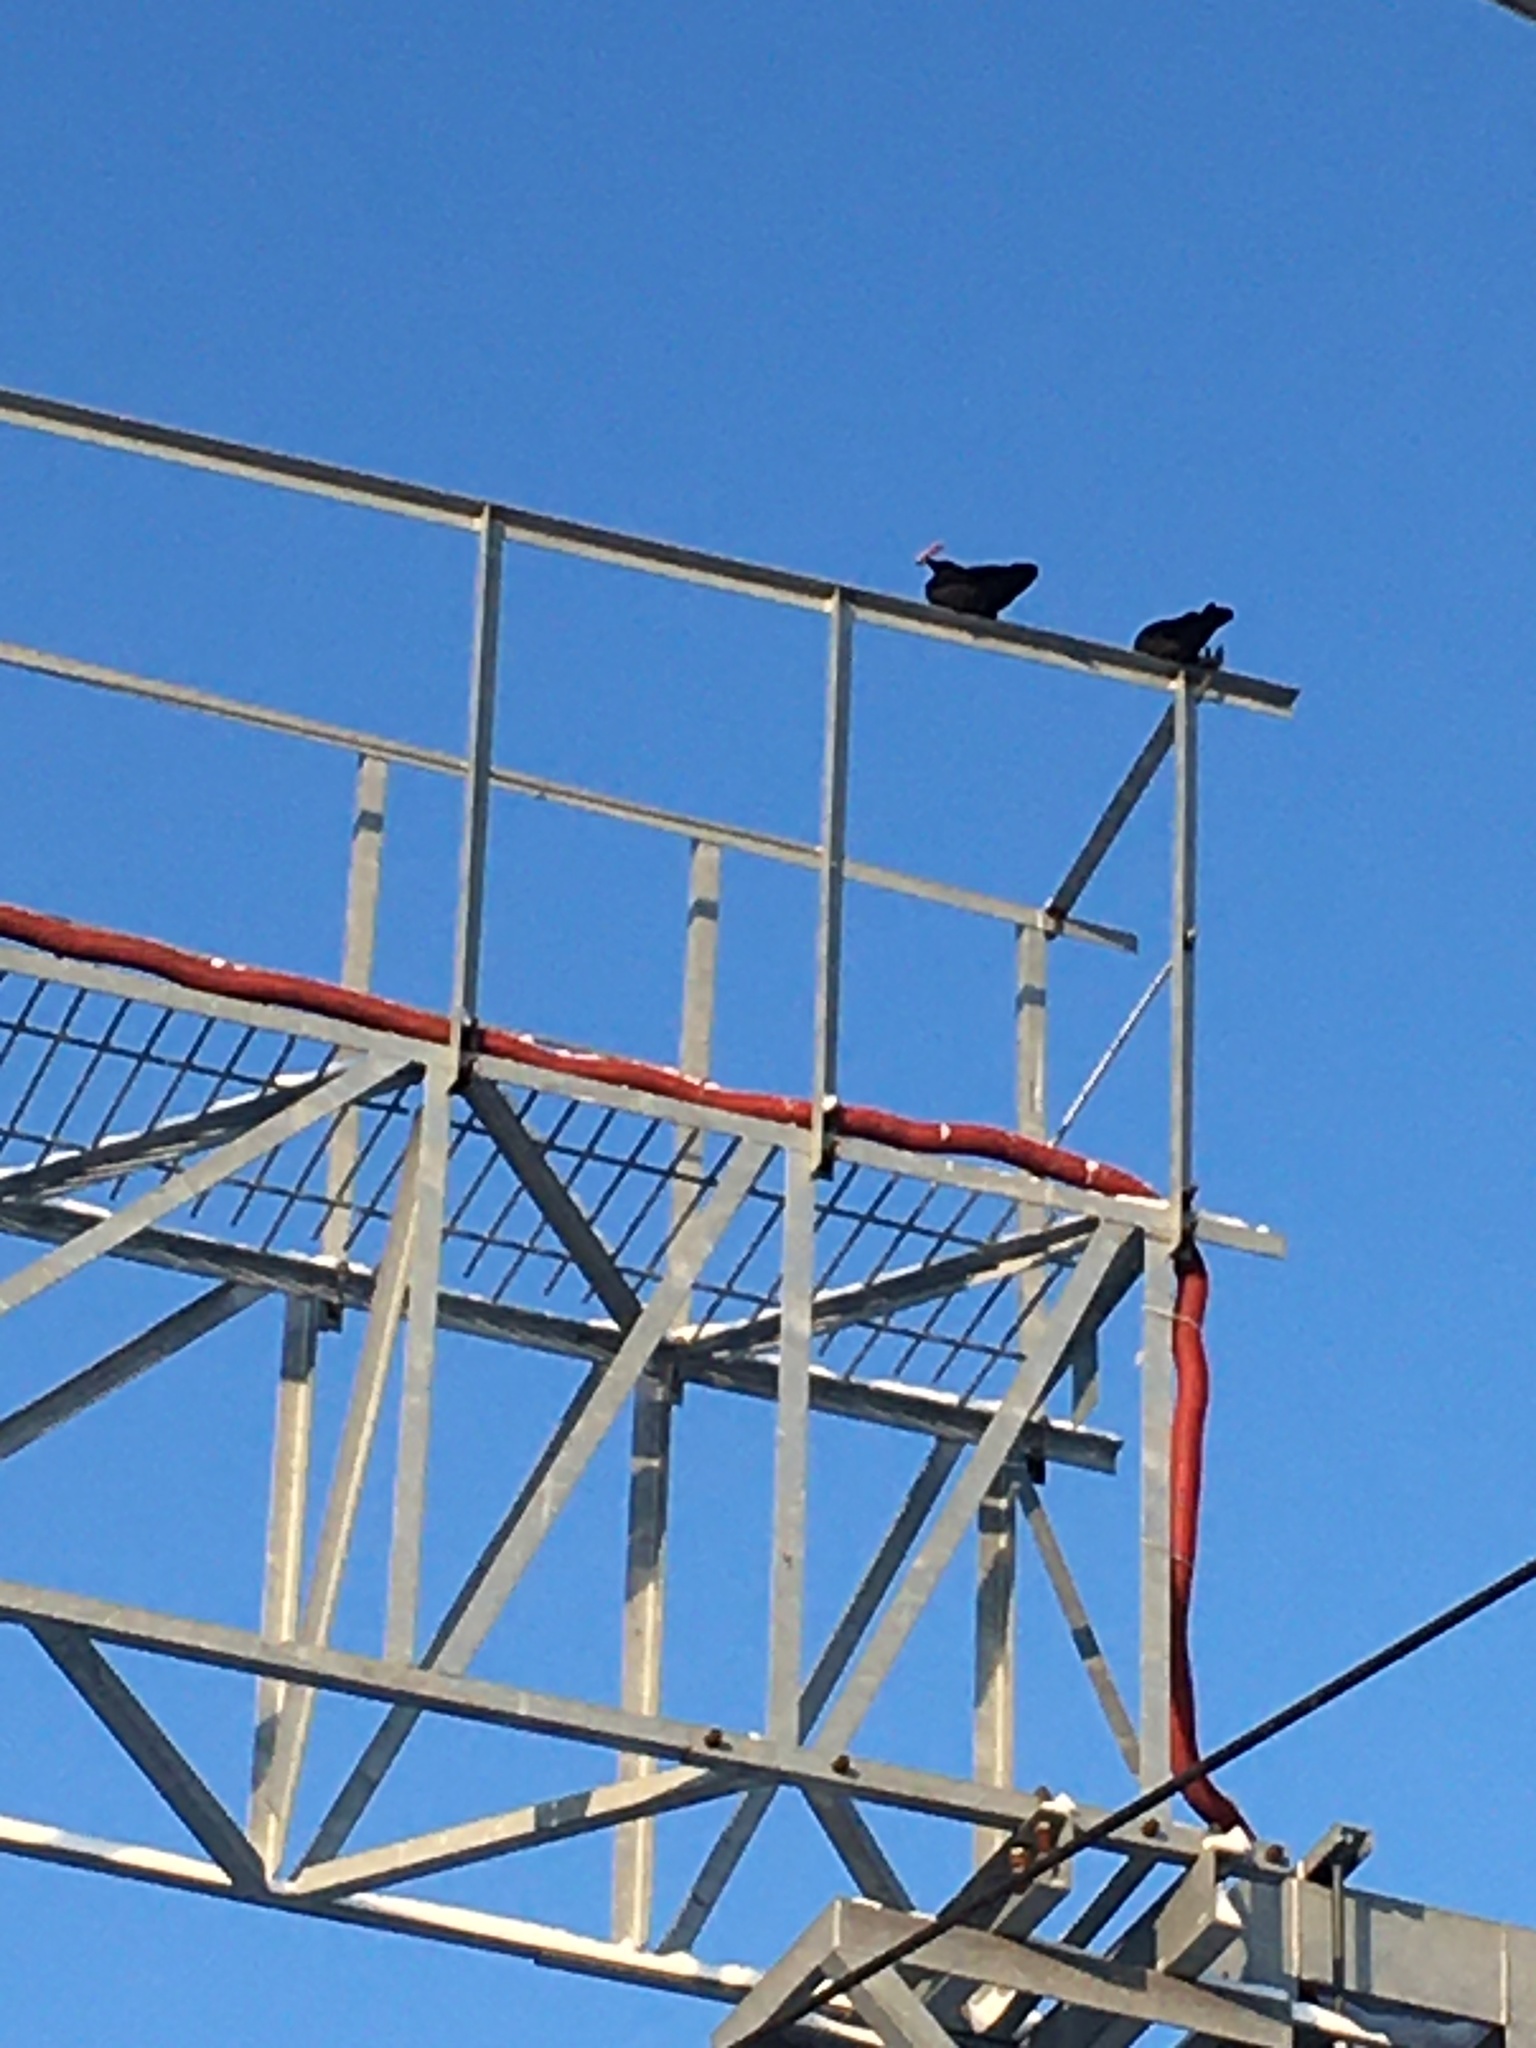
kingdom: Animalia
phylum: Chordata
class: Aves
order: Passeriformes
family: Corvidae
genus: Coloeus
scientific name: Coloeus monedula
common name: Western jackdaw
